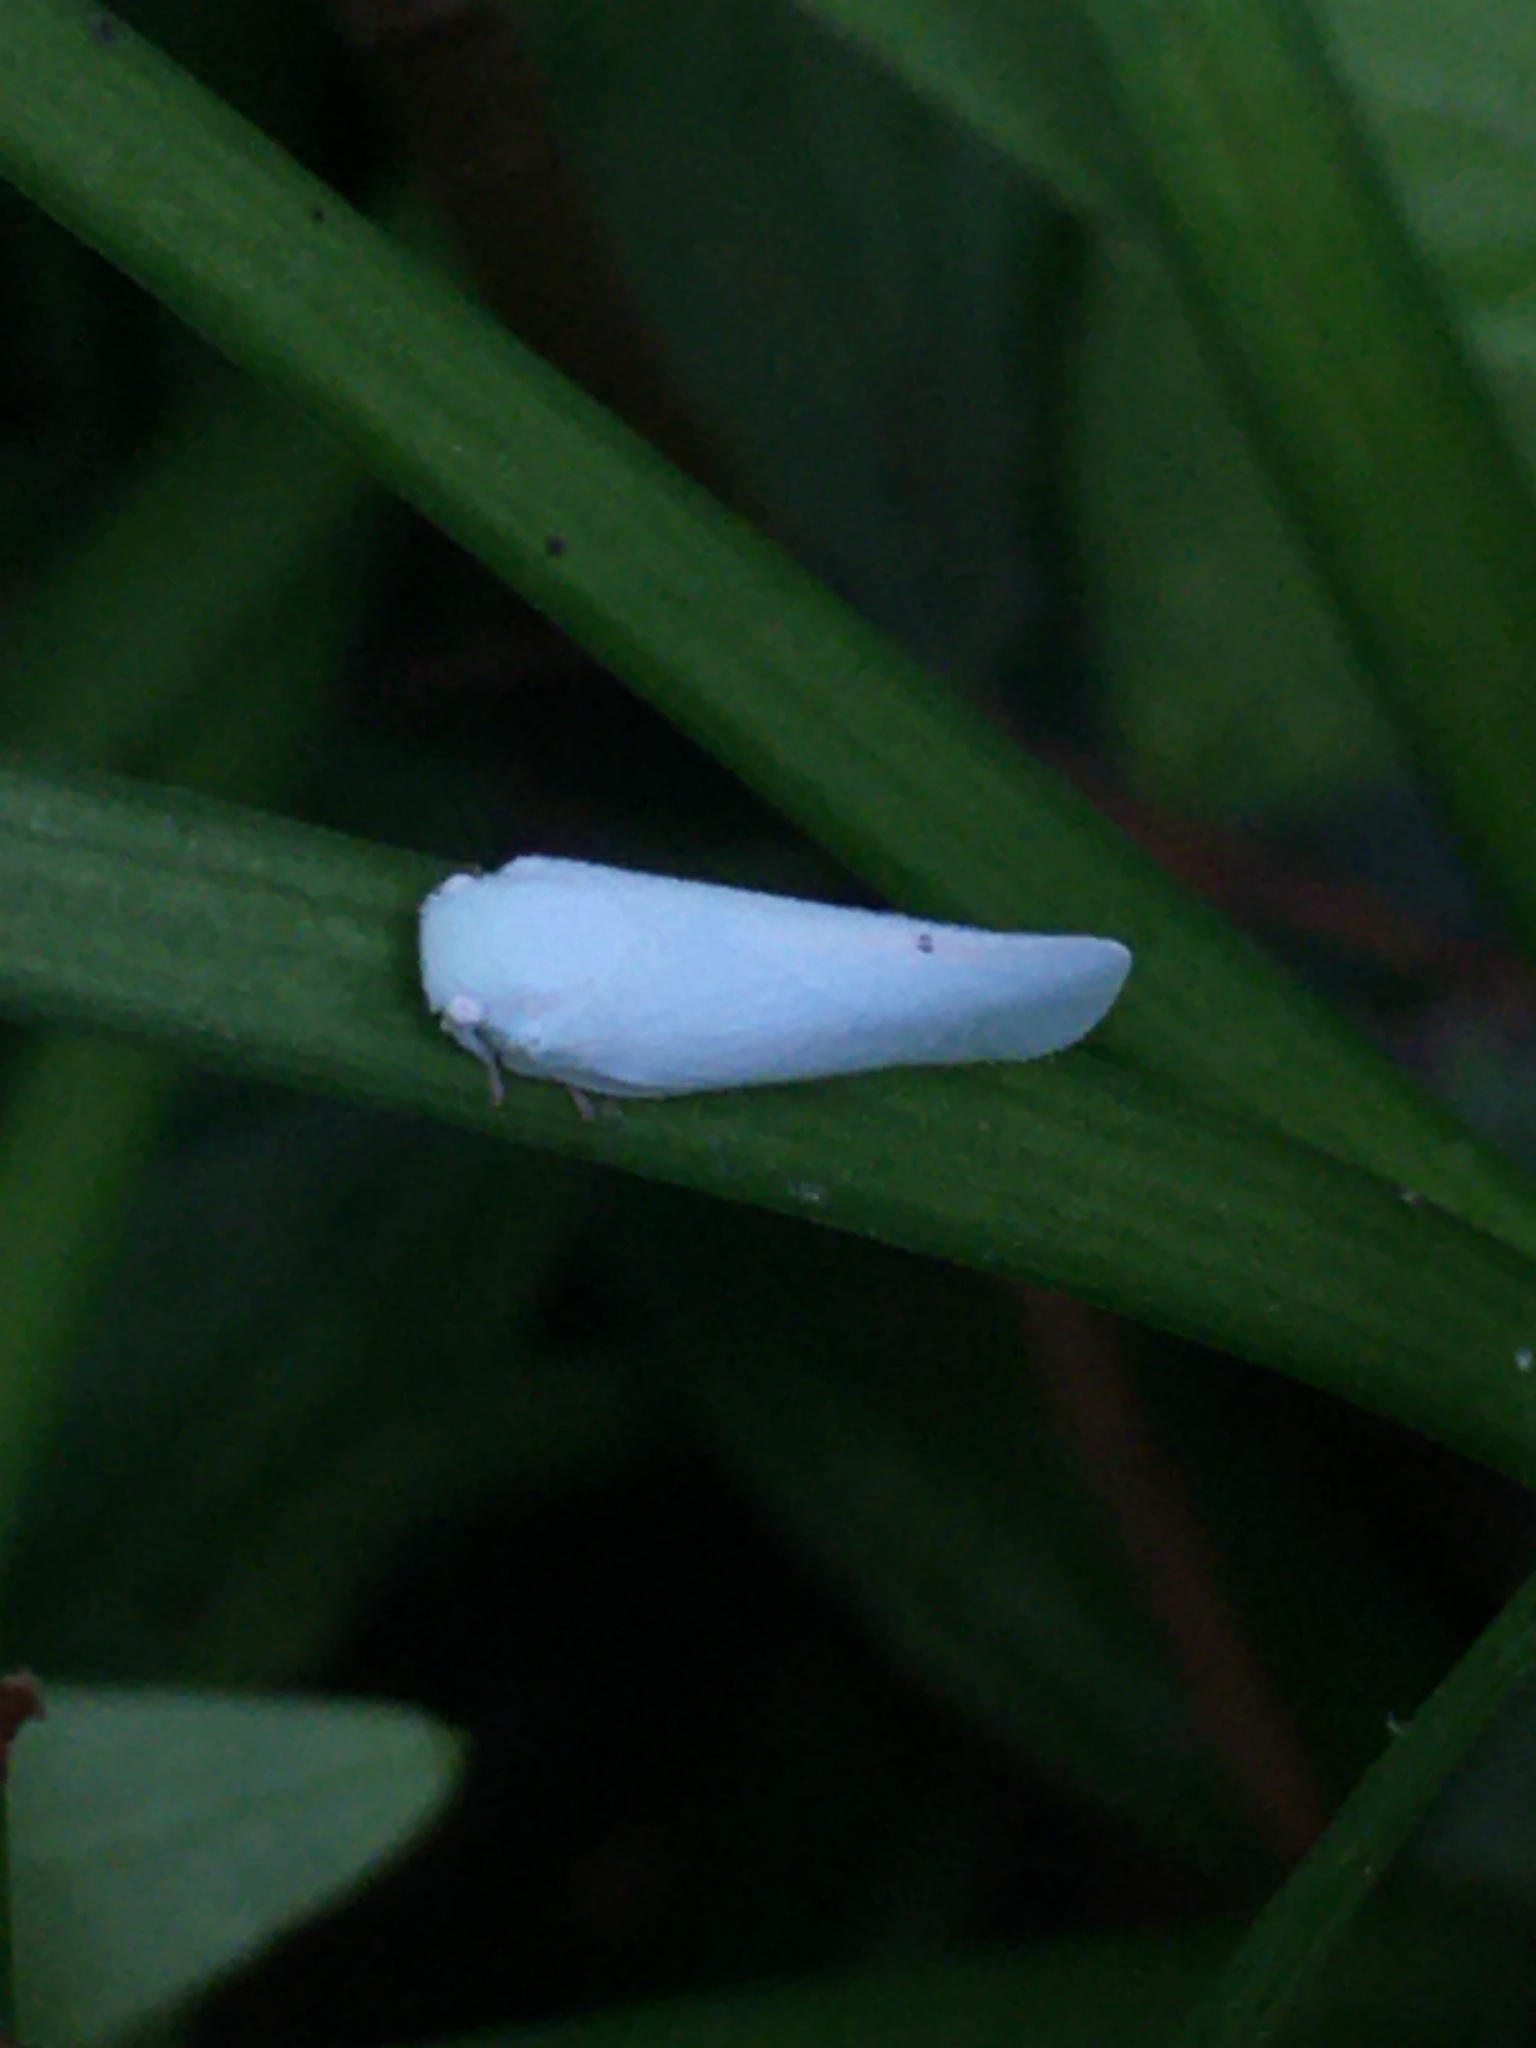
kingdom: Animalia
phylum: Arthropoda
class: Insecta
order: Hemiptera
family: Flatidae
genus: Flatormenis
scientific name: Flatormenis proxima
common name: Northern flatid planthopper
